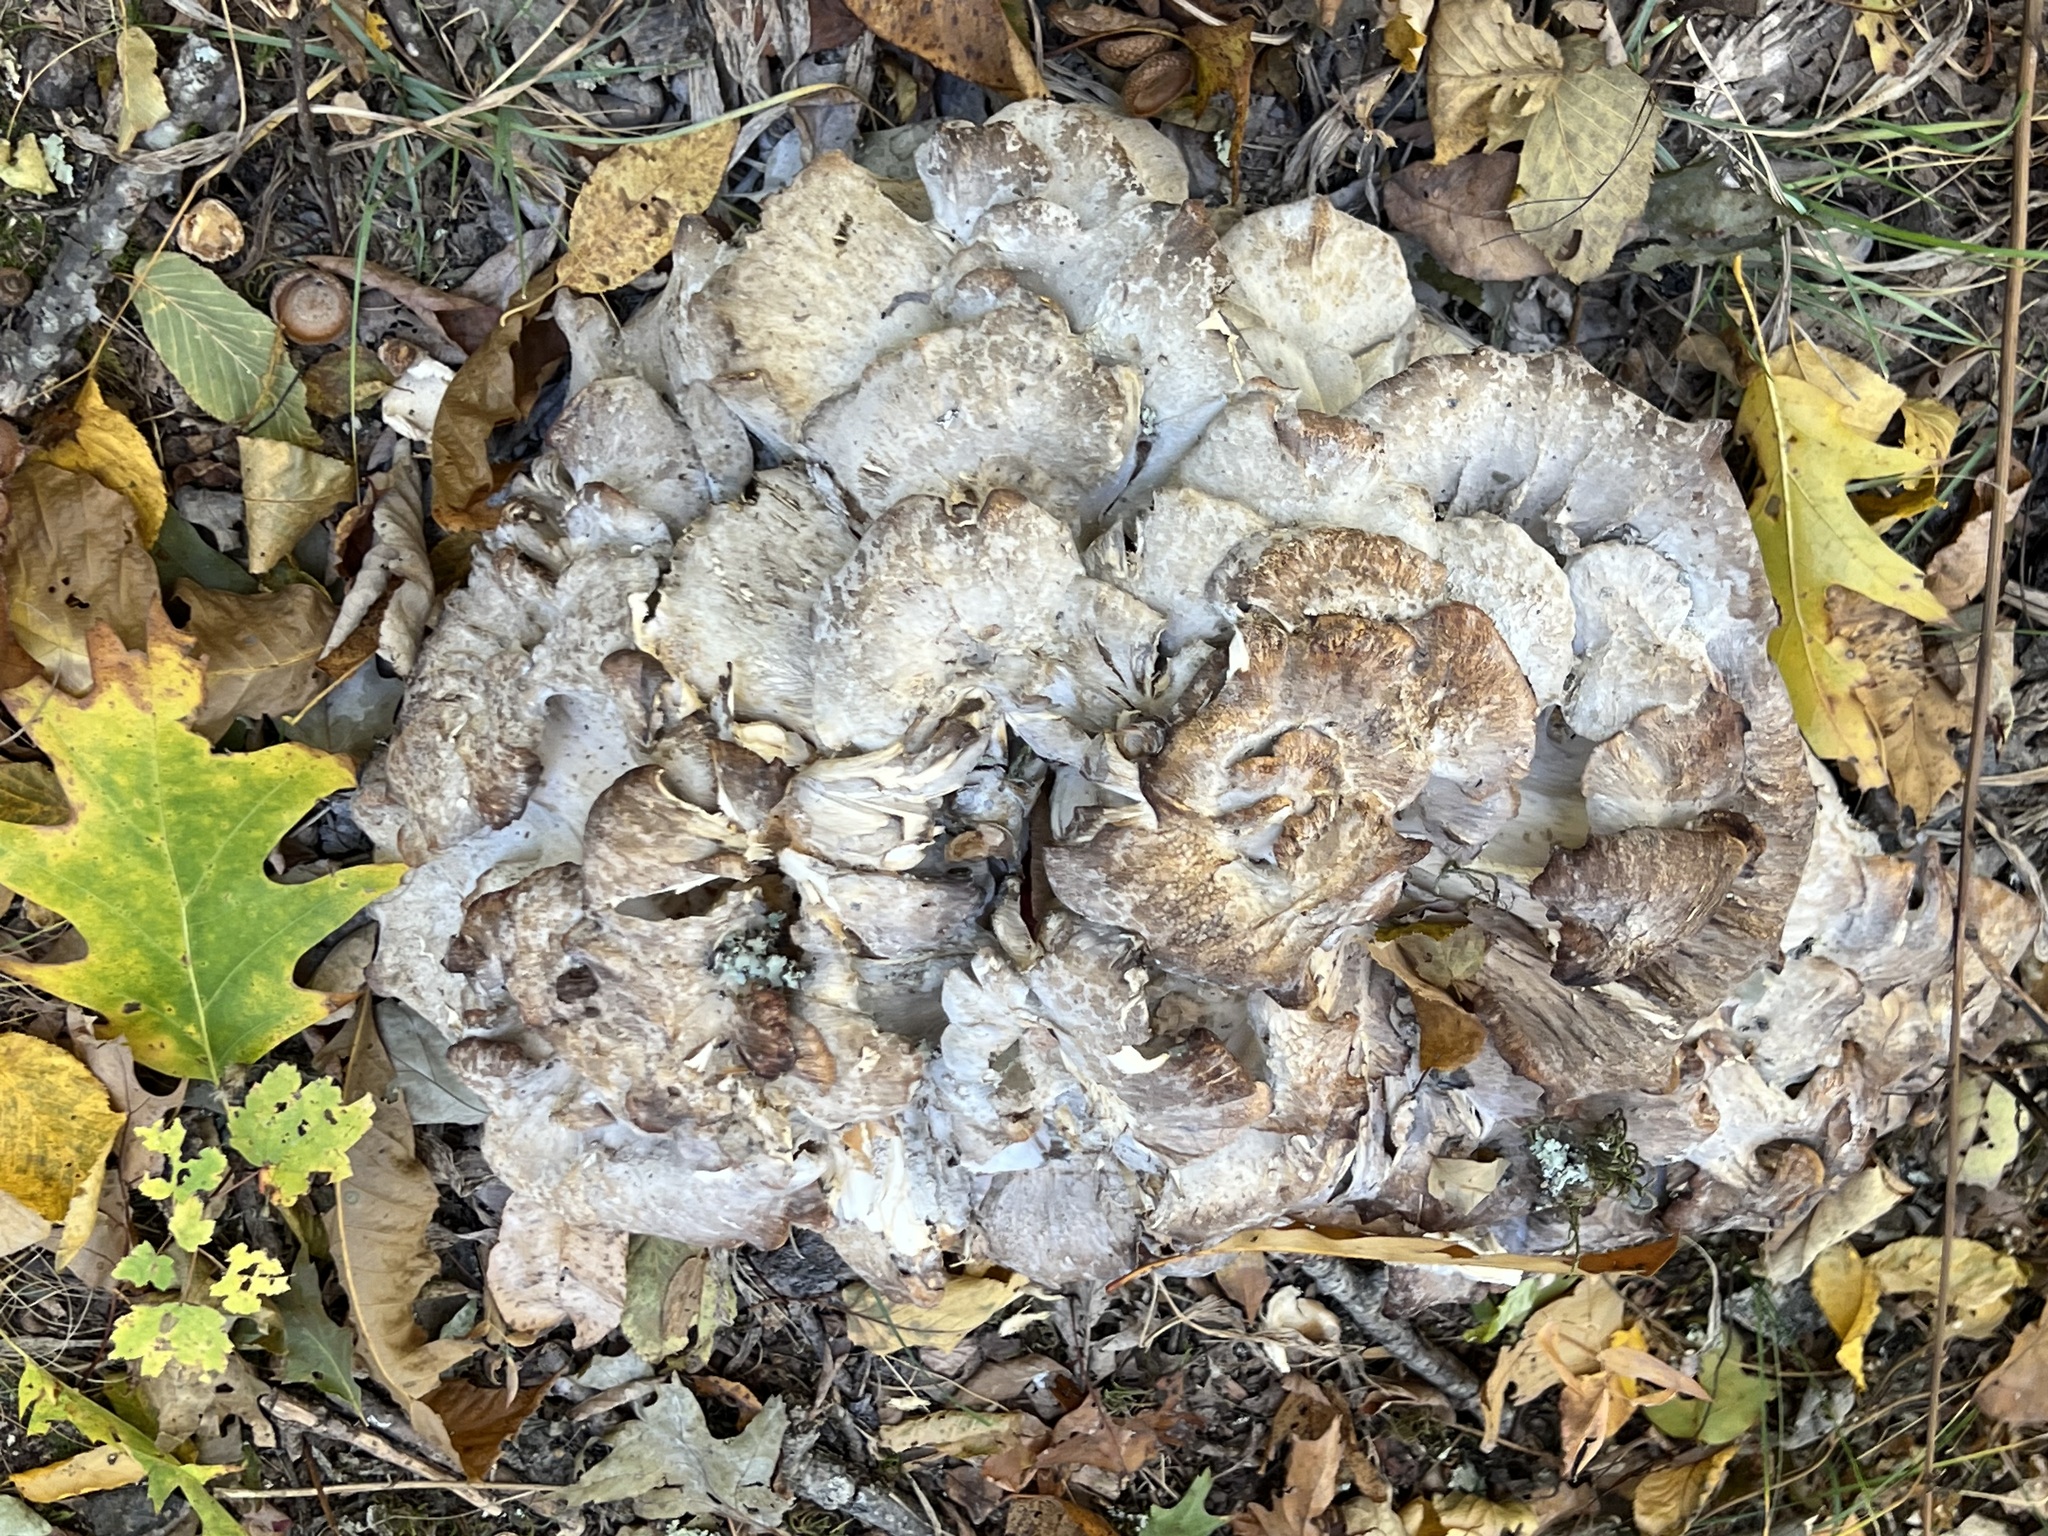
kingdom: Fungi
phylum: Basidiomycota
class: Agaricomycetes
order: Polyporales
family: Grifolaceae
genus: Grifola
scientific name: Grifola frondosa
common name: Hen of the woods
